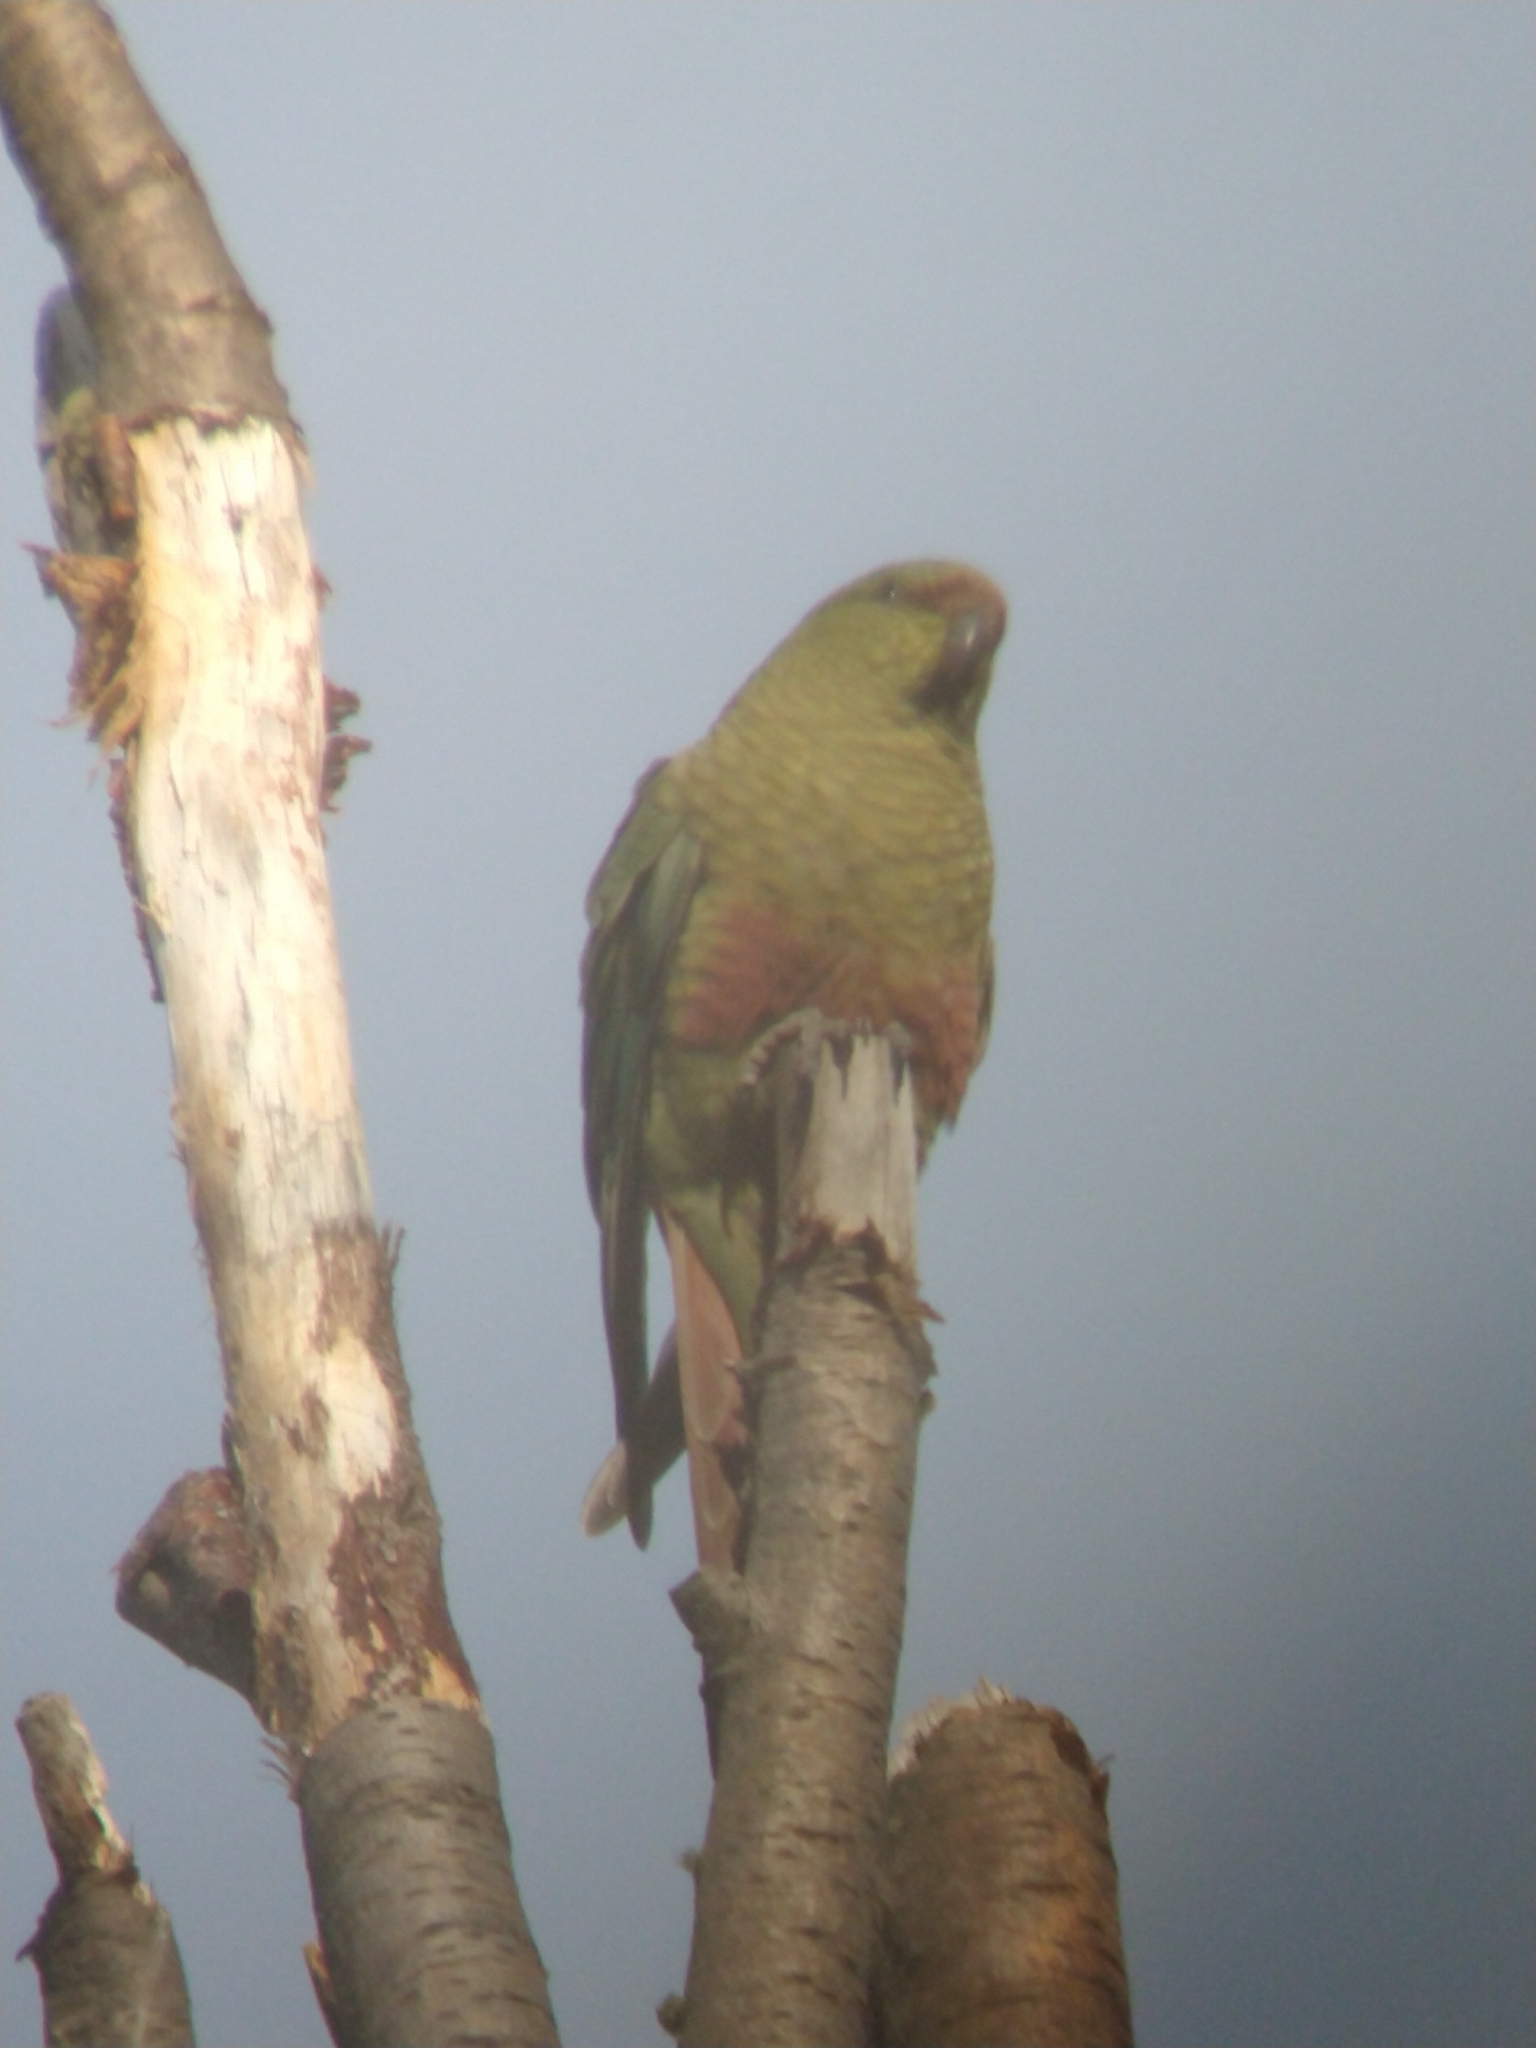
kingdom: Animalia
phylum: Chordata
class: Aves
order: Psittaciformes
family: Psittacidae
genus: Enicognathus
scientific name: Enicognathus ferrugineus
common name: Austral parakeet
